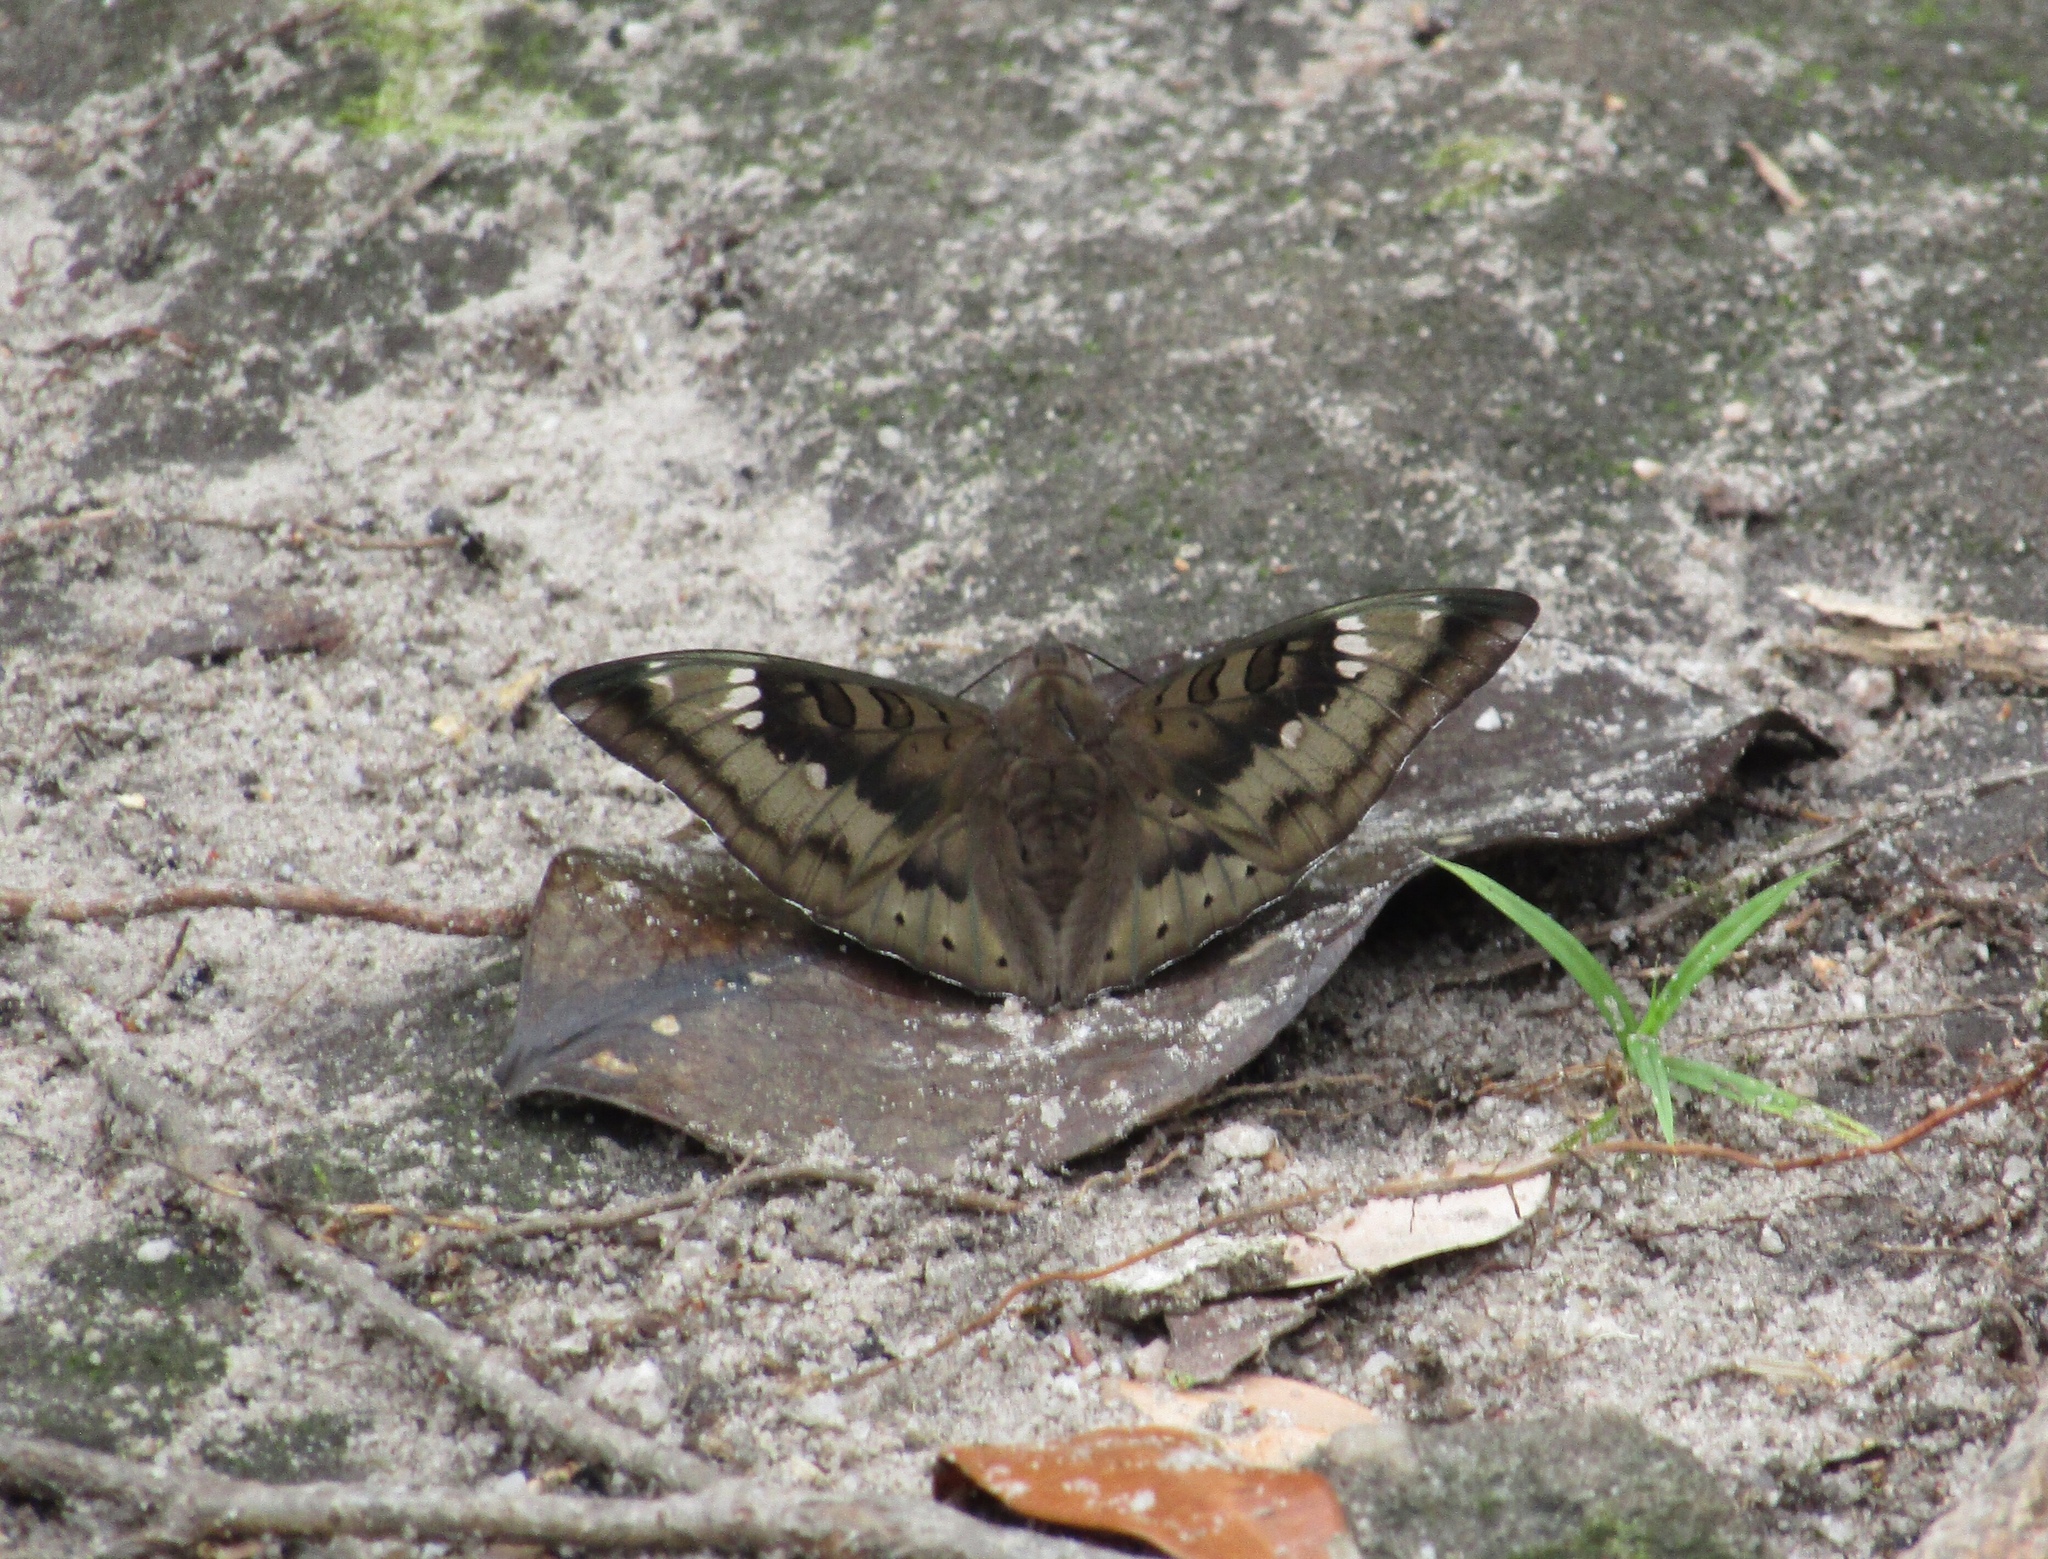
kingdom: Animalia
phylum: Arthropoda
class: Insecta
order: Lepidoptera
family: Nymphalidae
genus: Euthalia
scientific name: Euthalia aconthea
